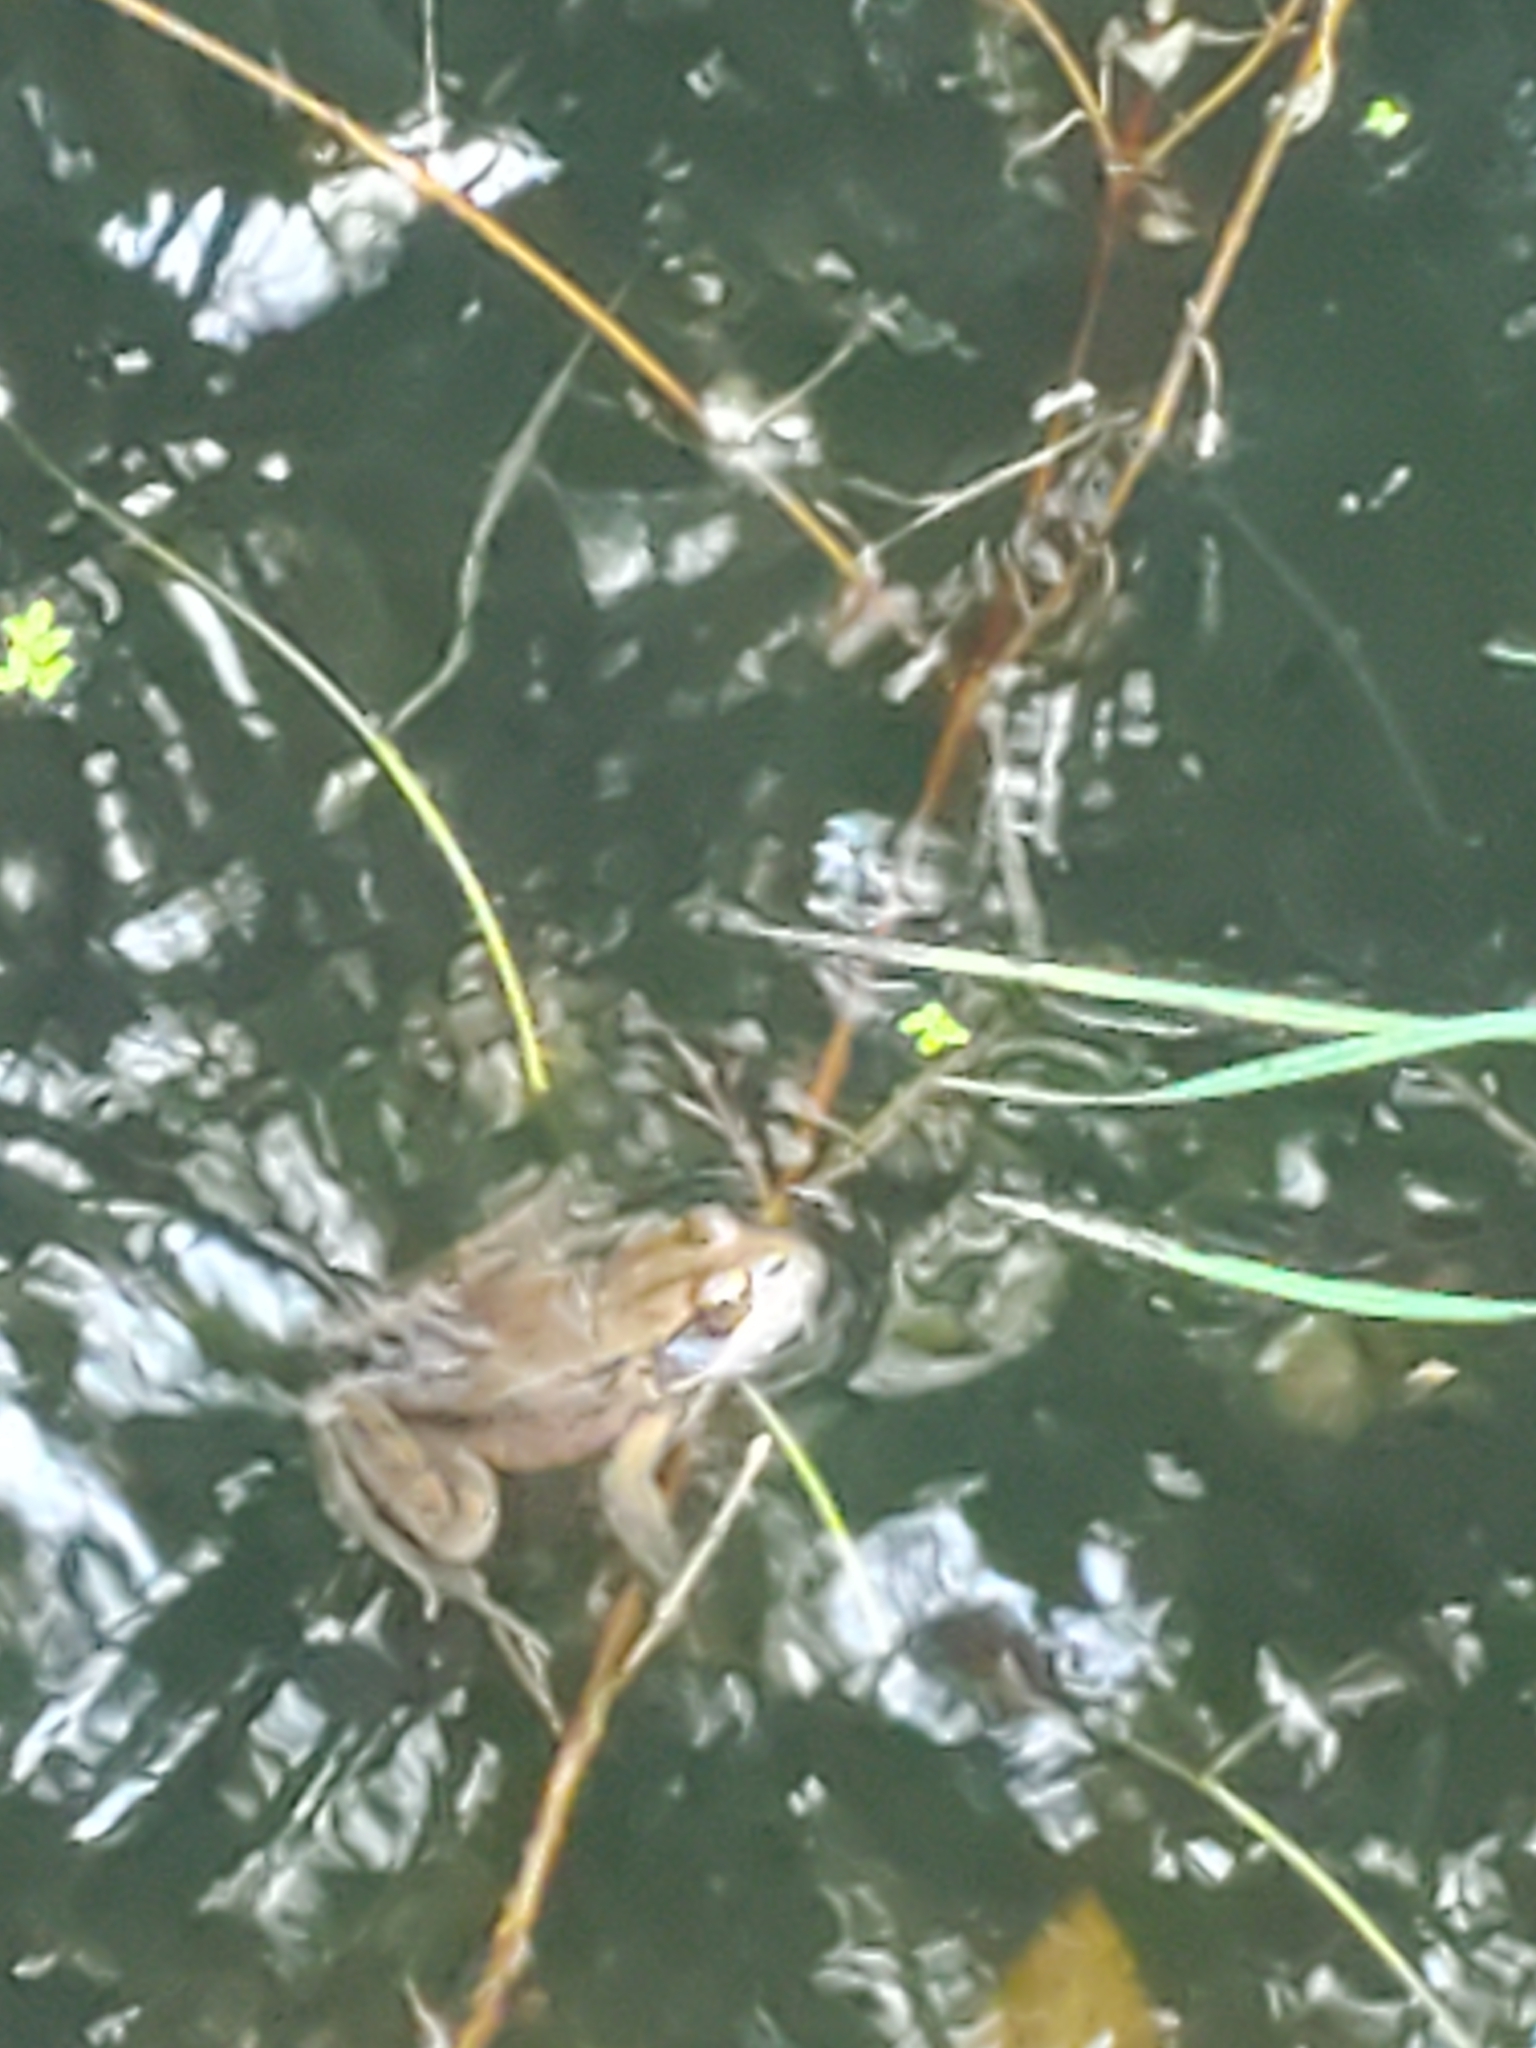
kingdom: Animalia
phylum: Chordata
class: Amphibia
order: Anura
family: Ranidae
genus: Rana
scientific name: Rana aurora
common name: Red-legged frog
